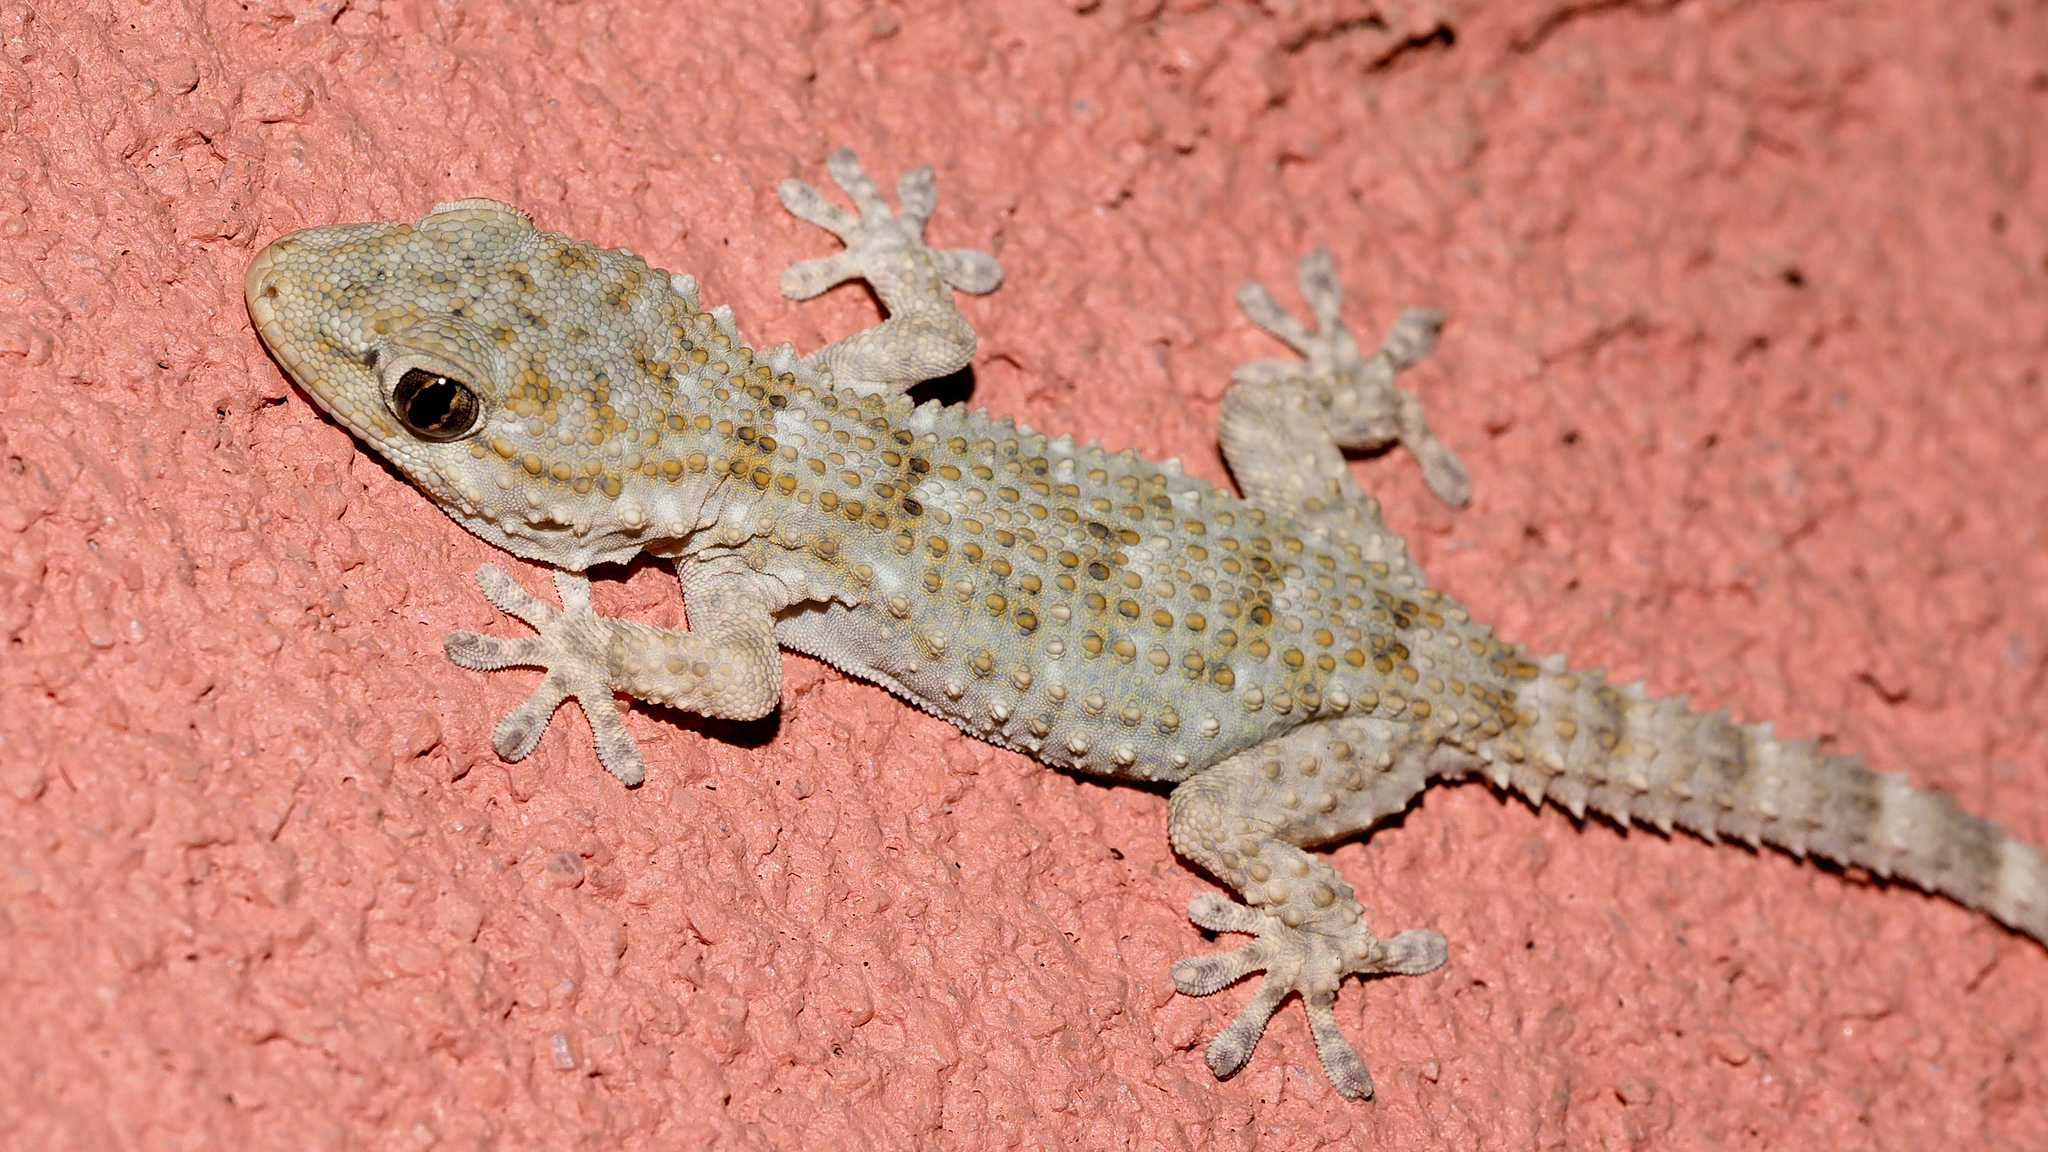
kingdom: Animalia
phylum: Chordata
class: Squamata
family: Phyllodactylidae
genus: Tarentola
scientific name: Tarentola mauritanica
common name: Moorish gecko
